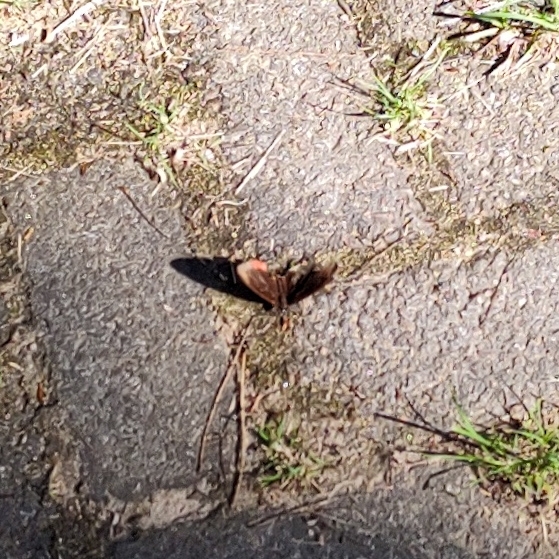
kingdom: Animalia
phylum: Arthropoda
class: Insecta
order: Lepidoptera
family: Sesiidae
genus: Sesia
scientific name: Sesia Biblis hyperia
